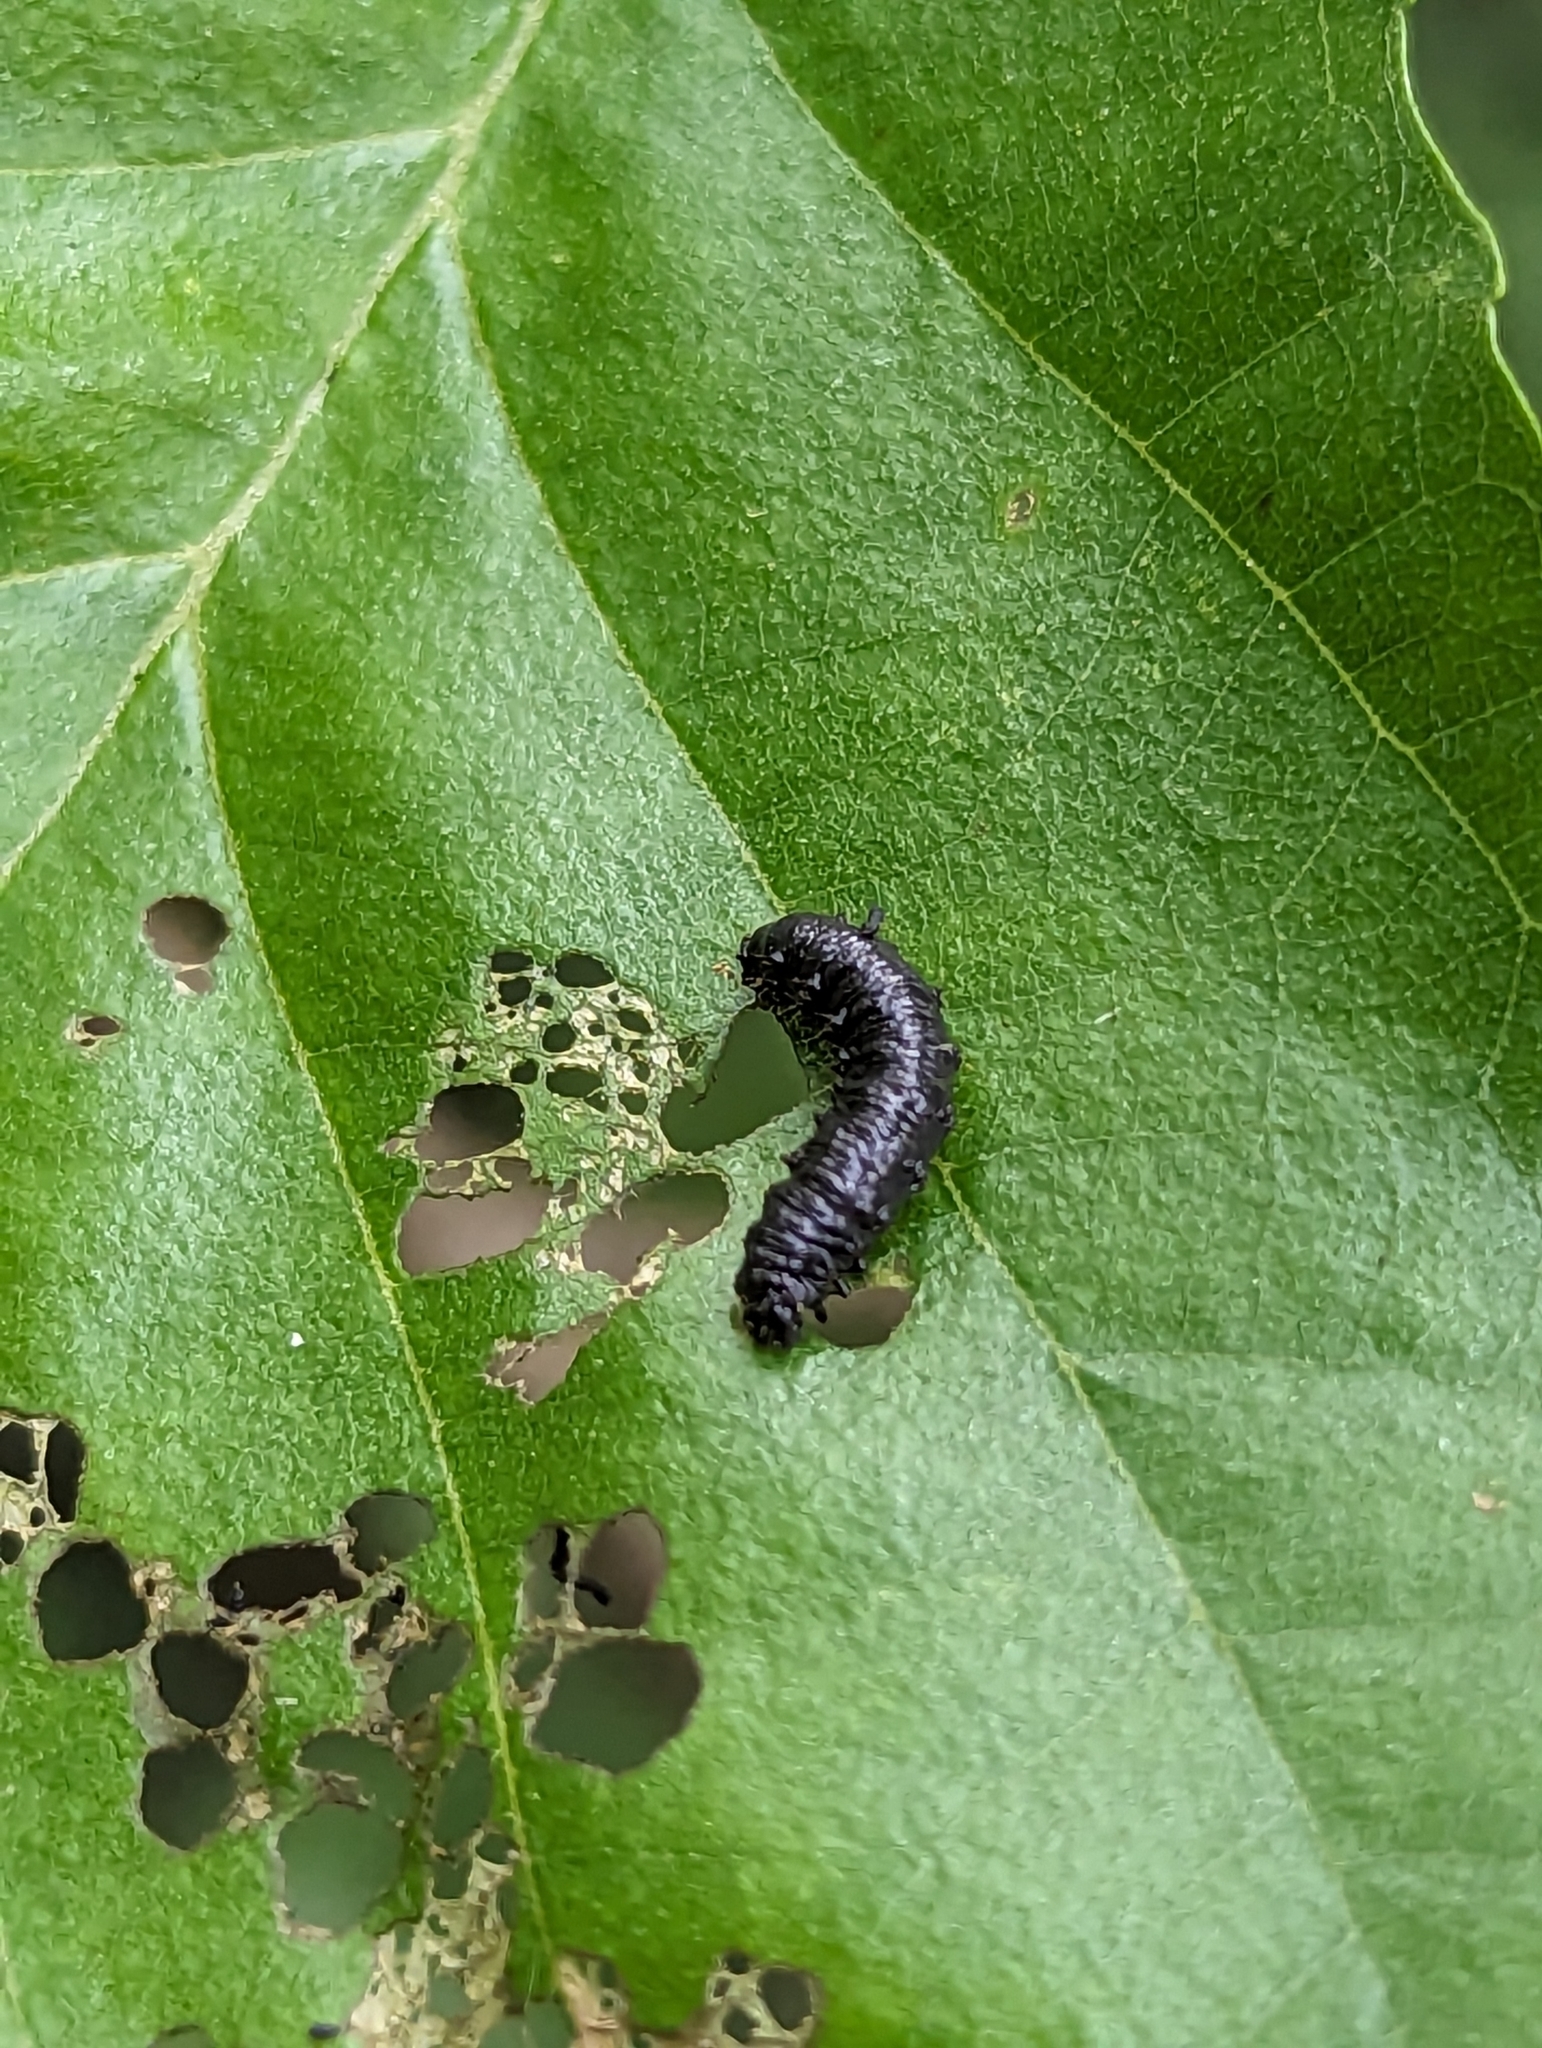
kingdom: Animalia
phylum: Arthropoda
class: Insecta
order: Coleoptera
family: Chrysomelidae
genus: Agelastica
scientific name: Agelastica alni
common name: Alder leaf beetle
